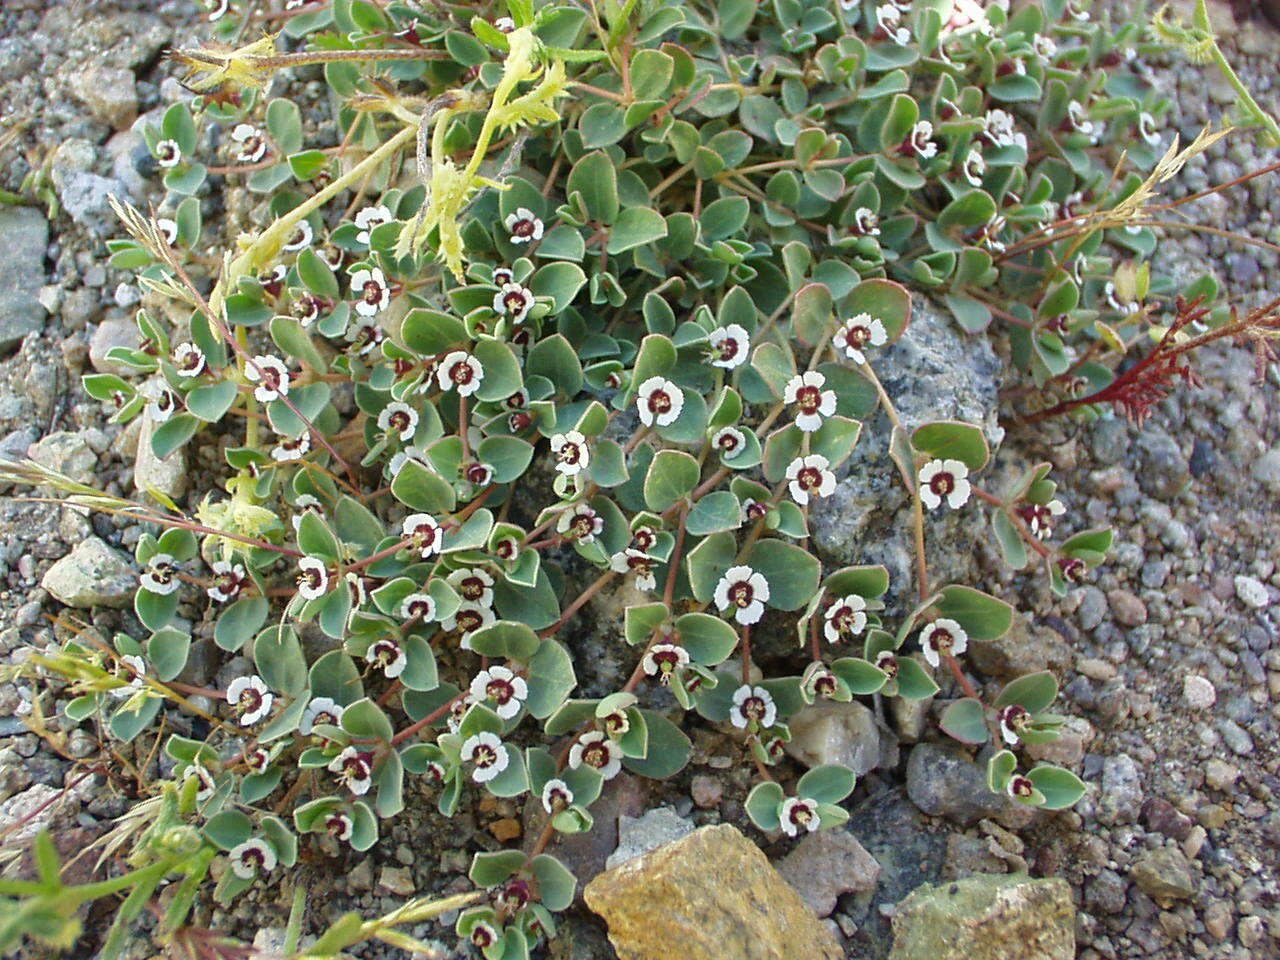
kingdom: Plantae
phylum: Tracheophyta
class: Magnoliopsida
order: Malpighiales
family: Euphorbiaceae
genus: Euphorbia
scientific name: Euphorbia albomarginata
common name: Whitemargin sandmat
